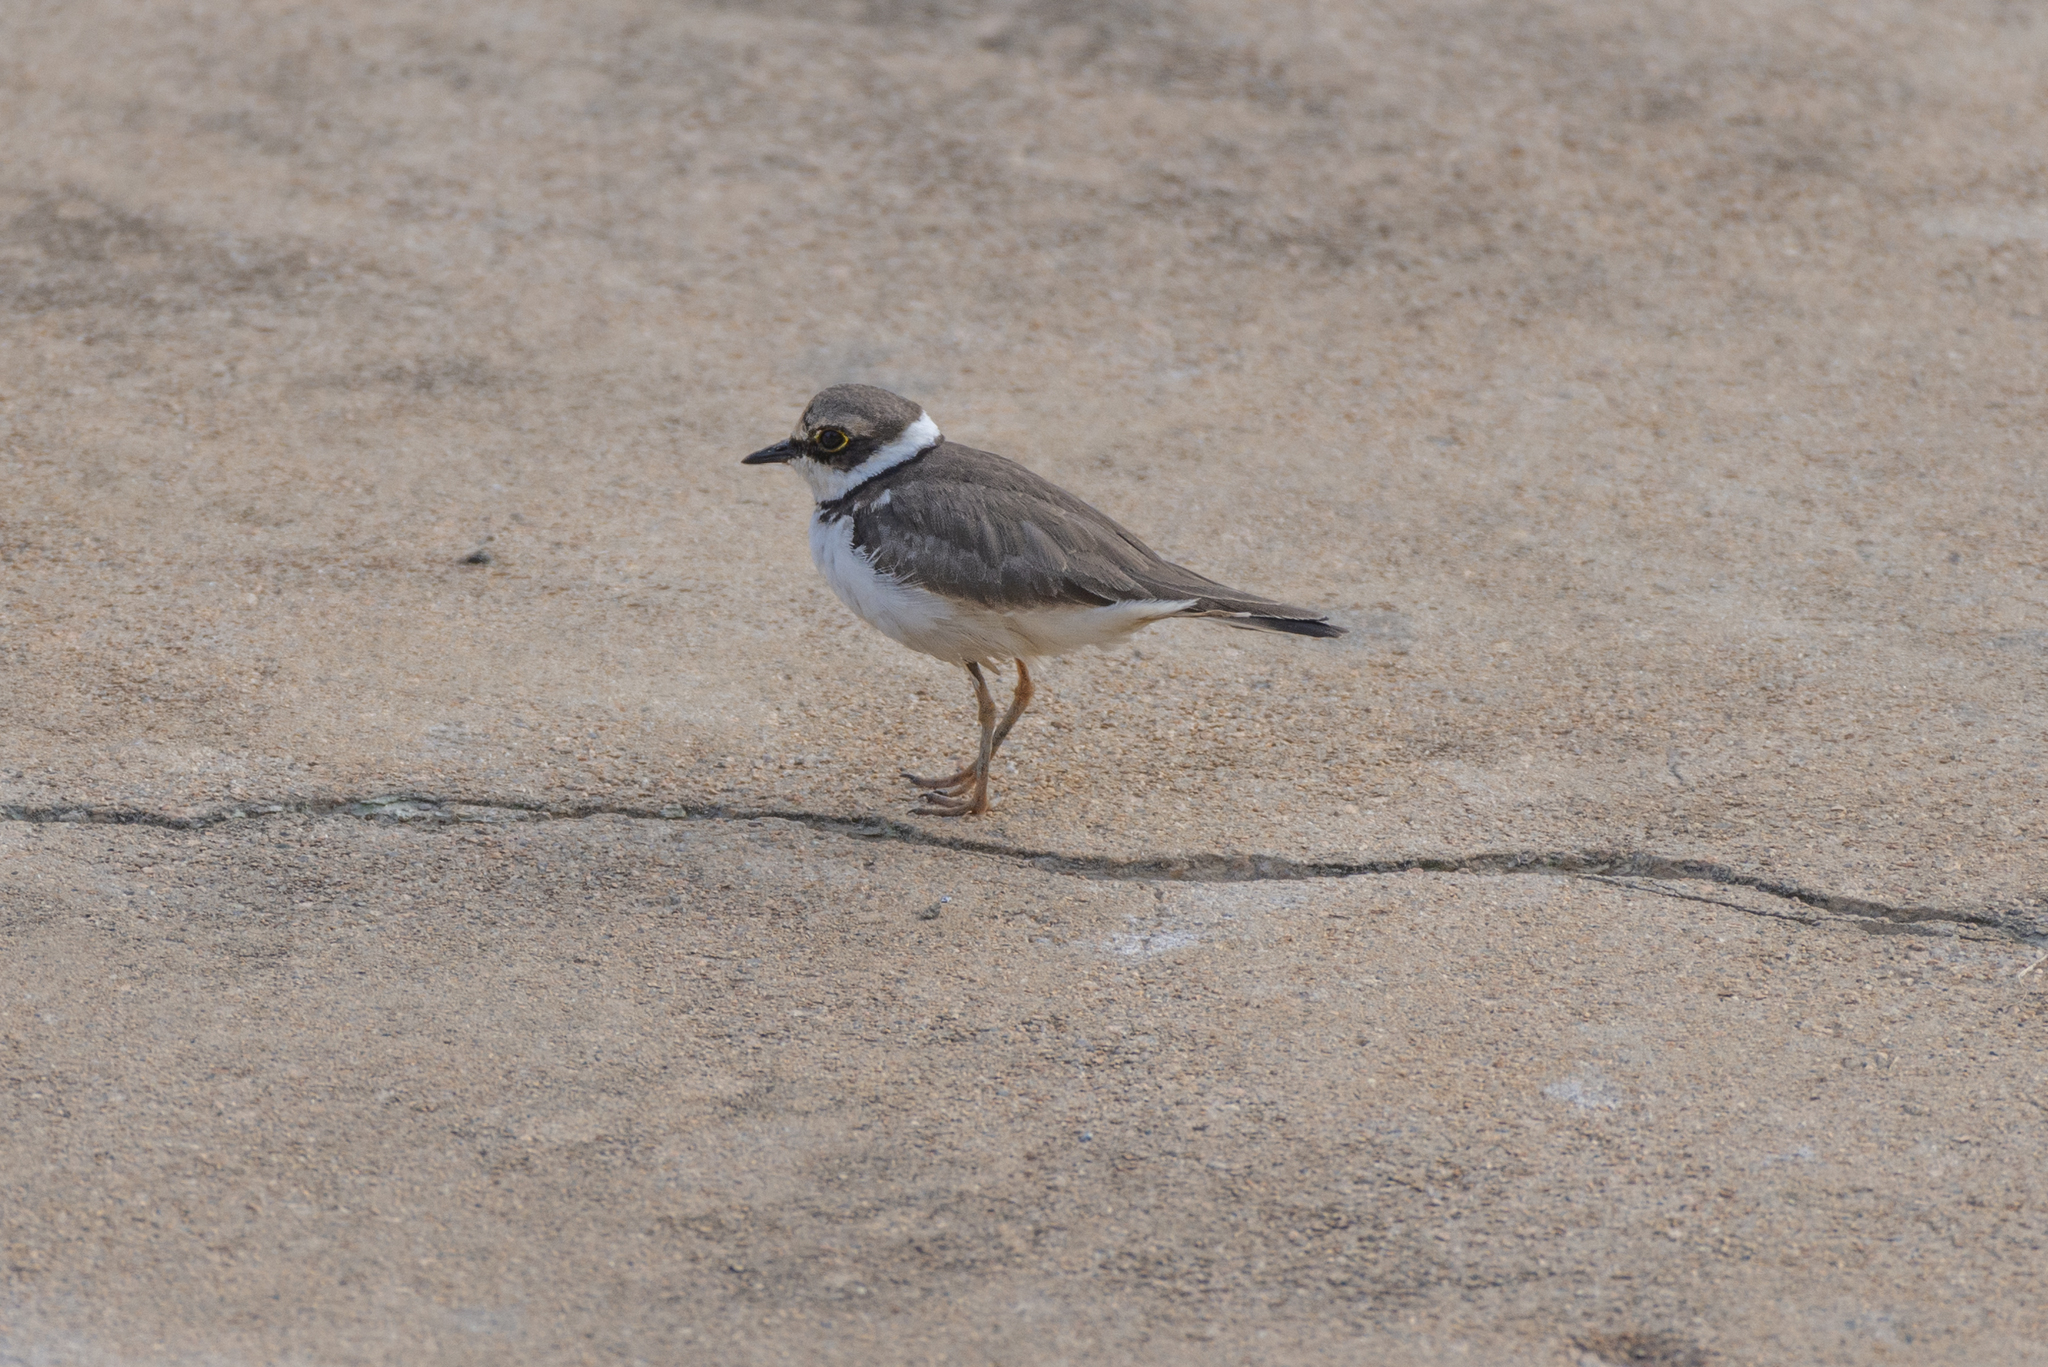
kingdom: Animalia
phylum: Chordata
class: Aves
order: Charadriiformes
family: Charadriidae
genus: Charadrius
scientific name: Charadrius dubius
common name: Little ringed plover
